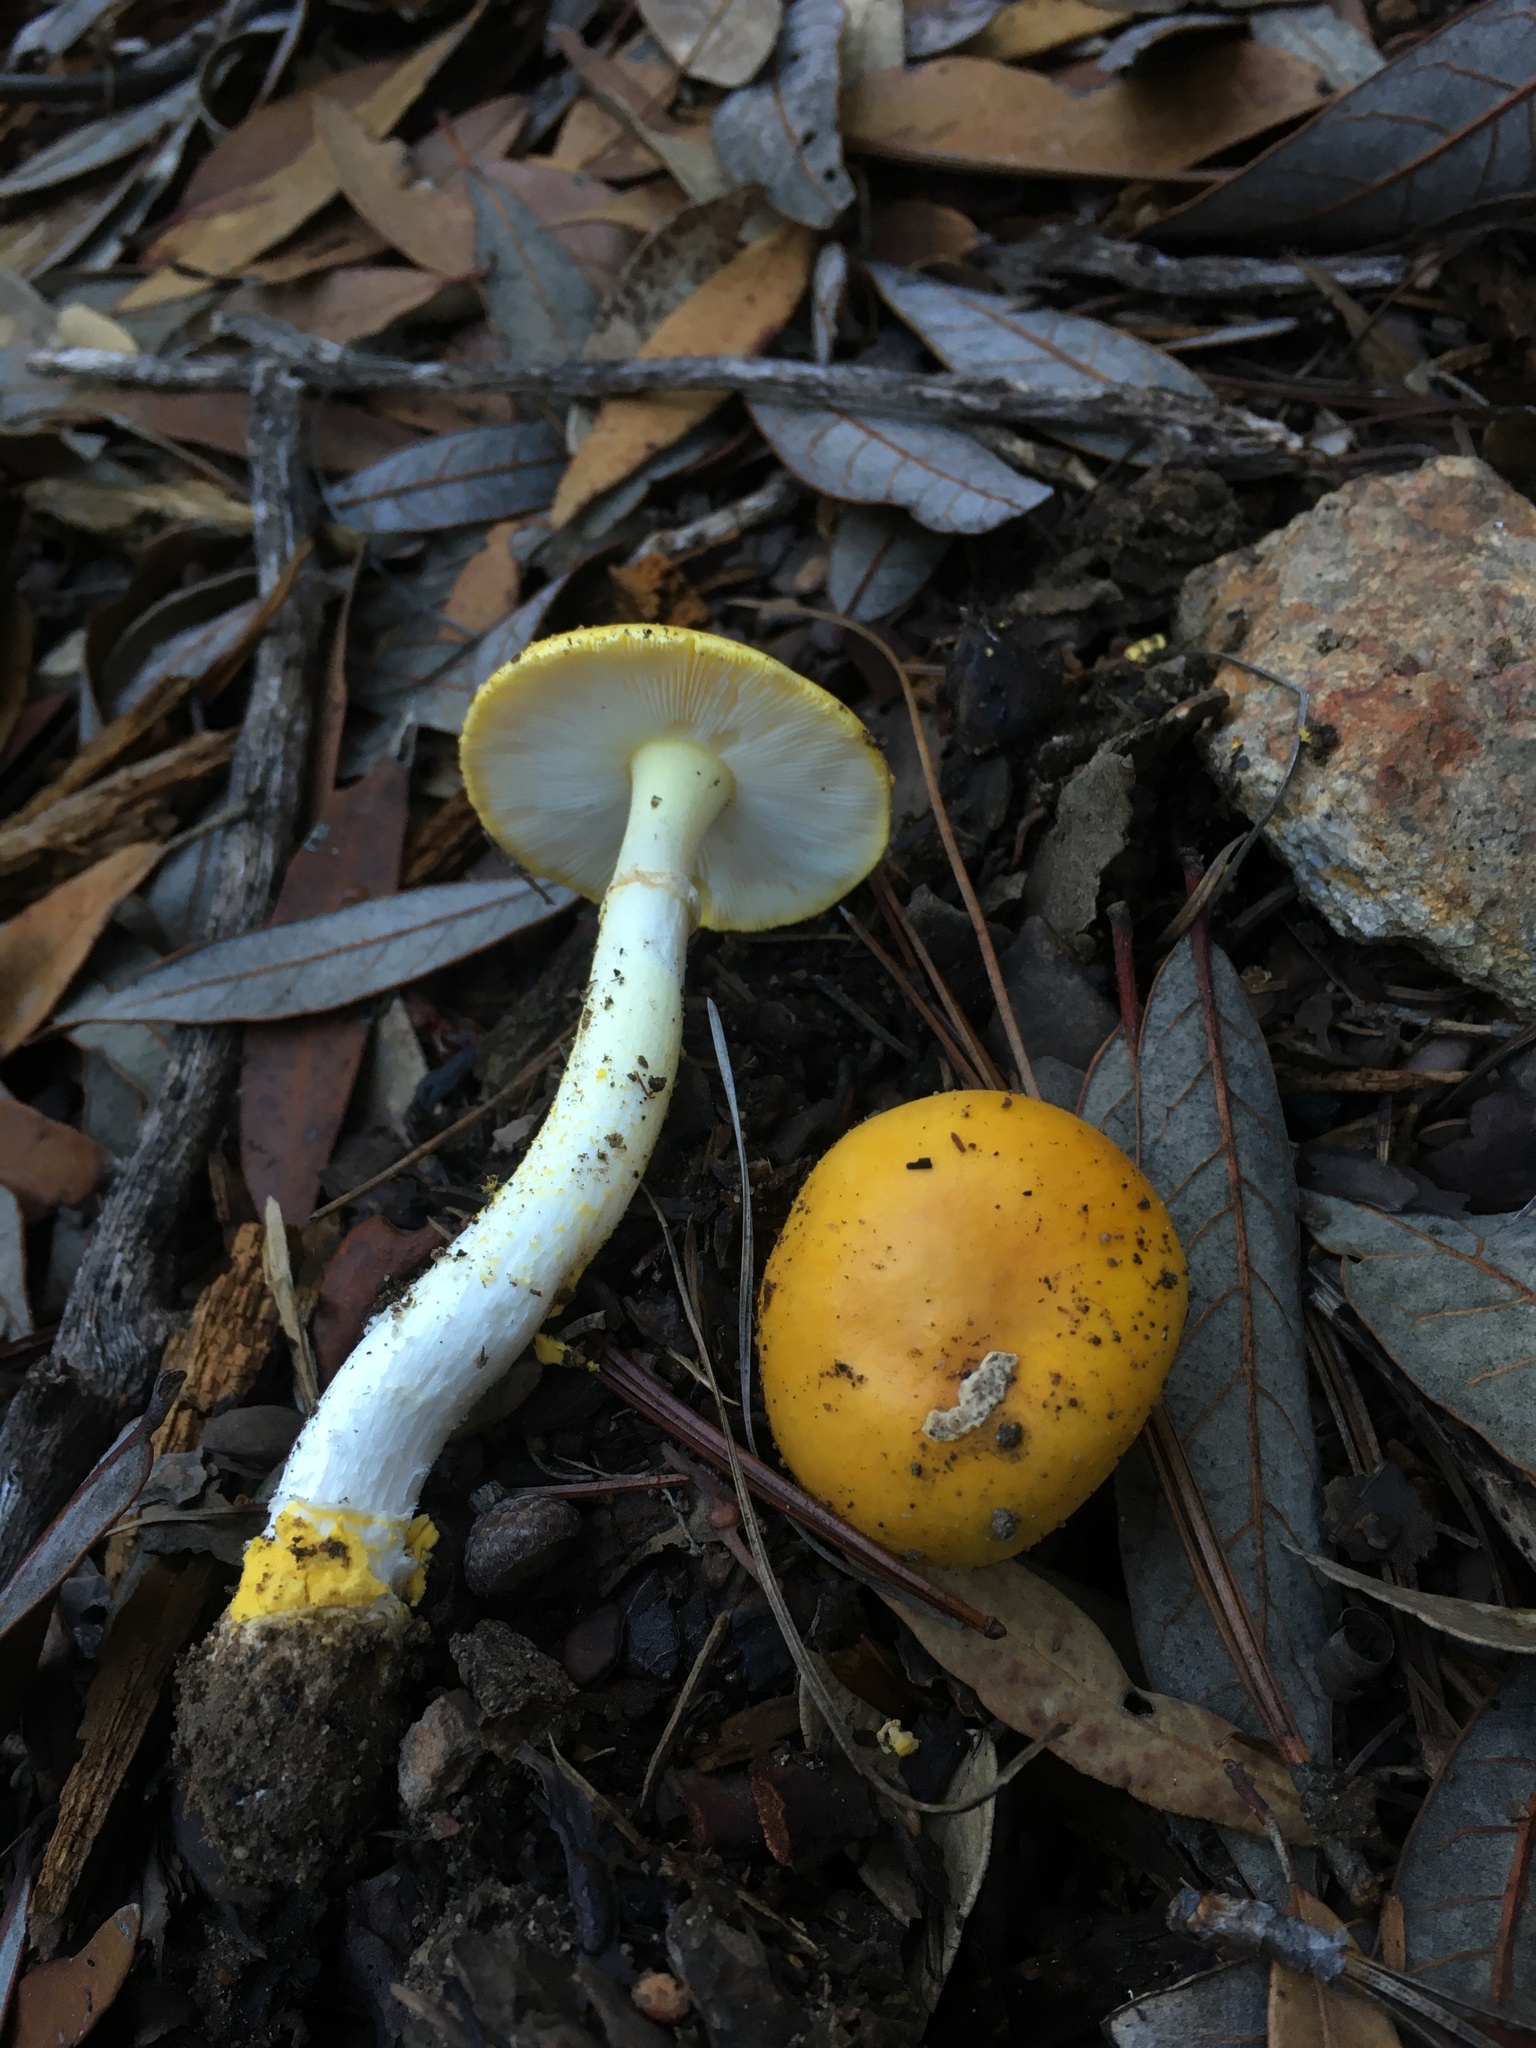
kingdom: Fungi
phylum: Basidiomycota
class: Agaricomycetes
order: Agaricales
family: Amanitaceae
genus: Amanita
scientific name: Amanita flavoconia
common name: Yellow patches
